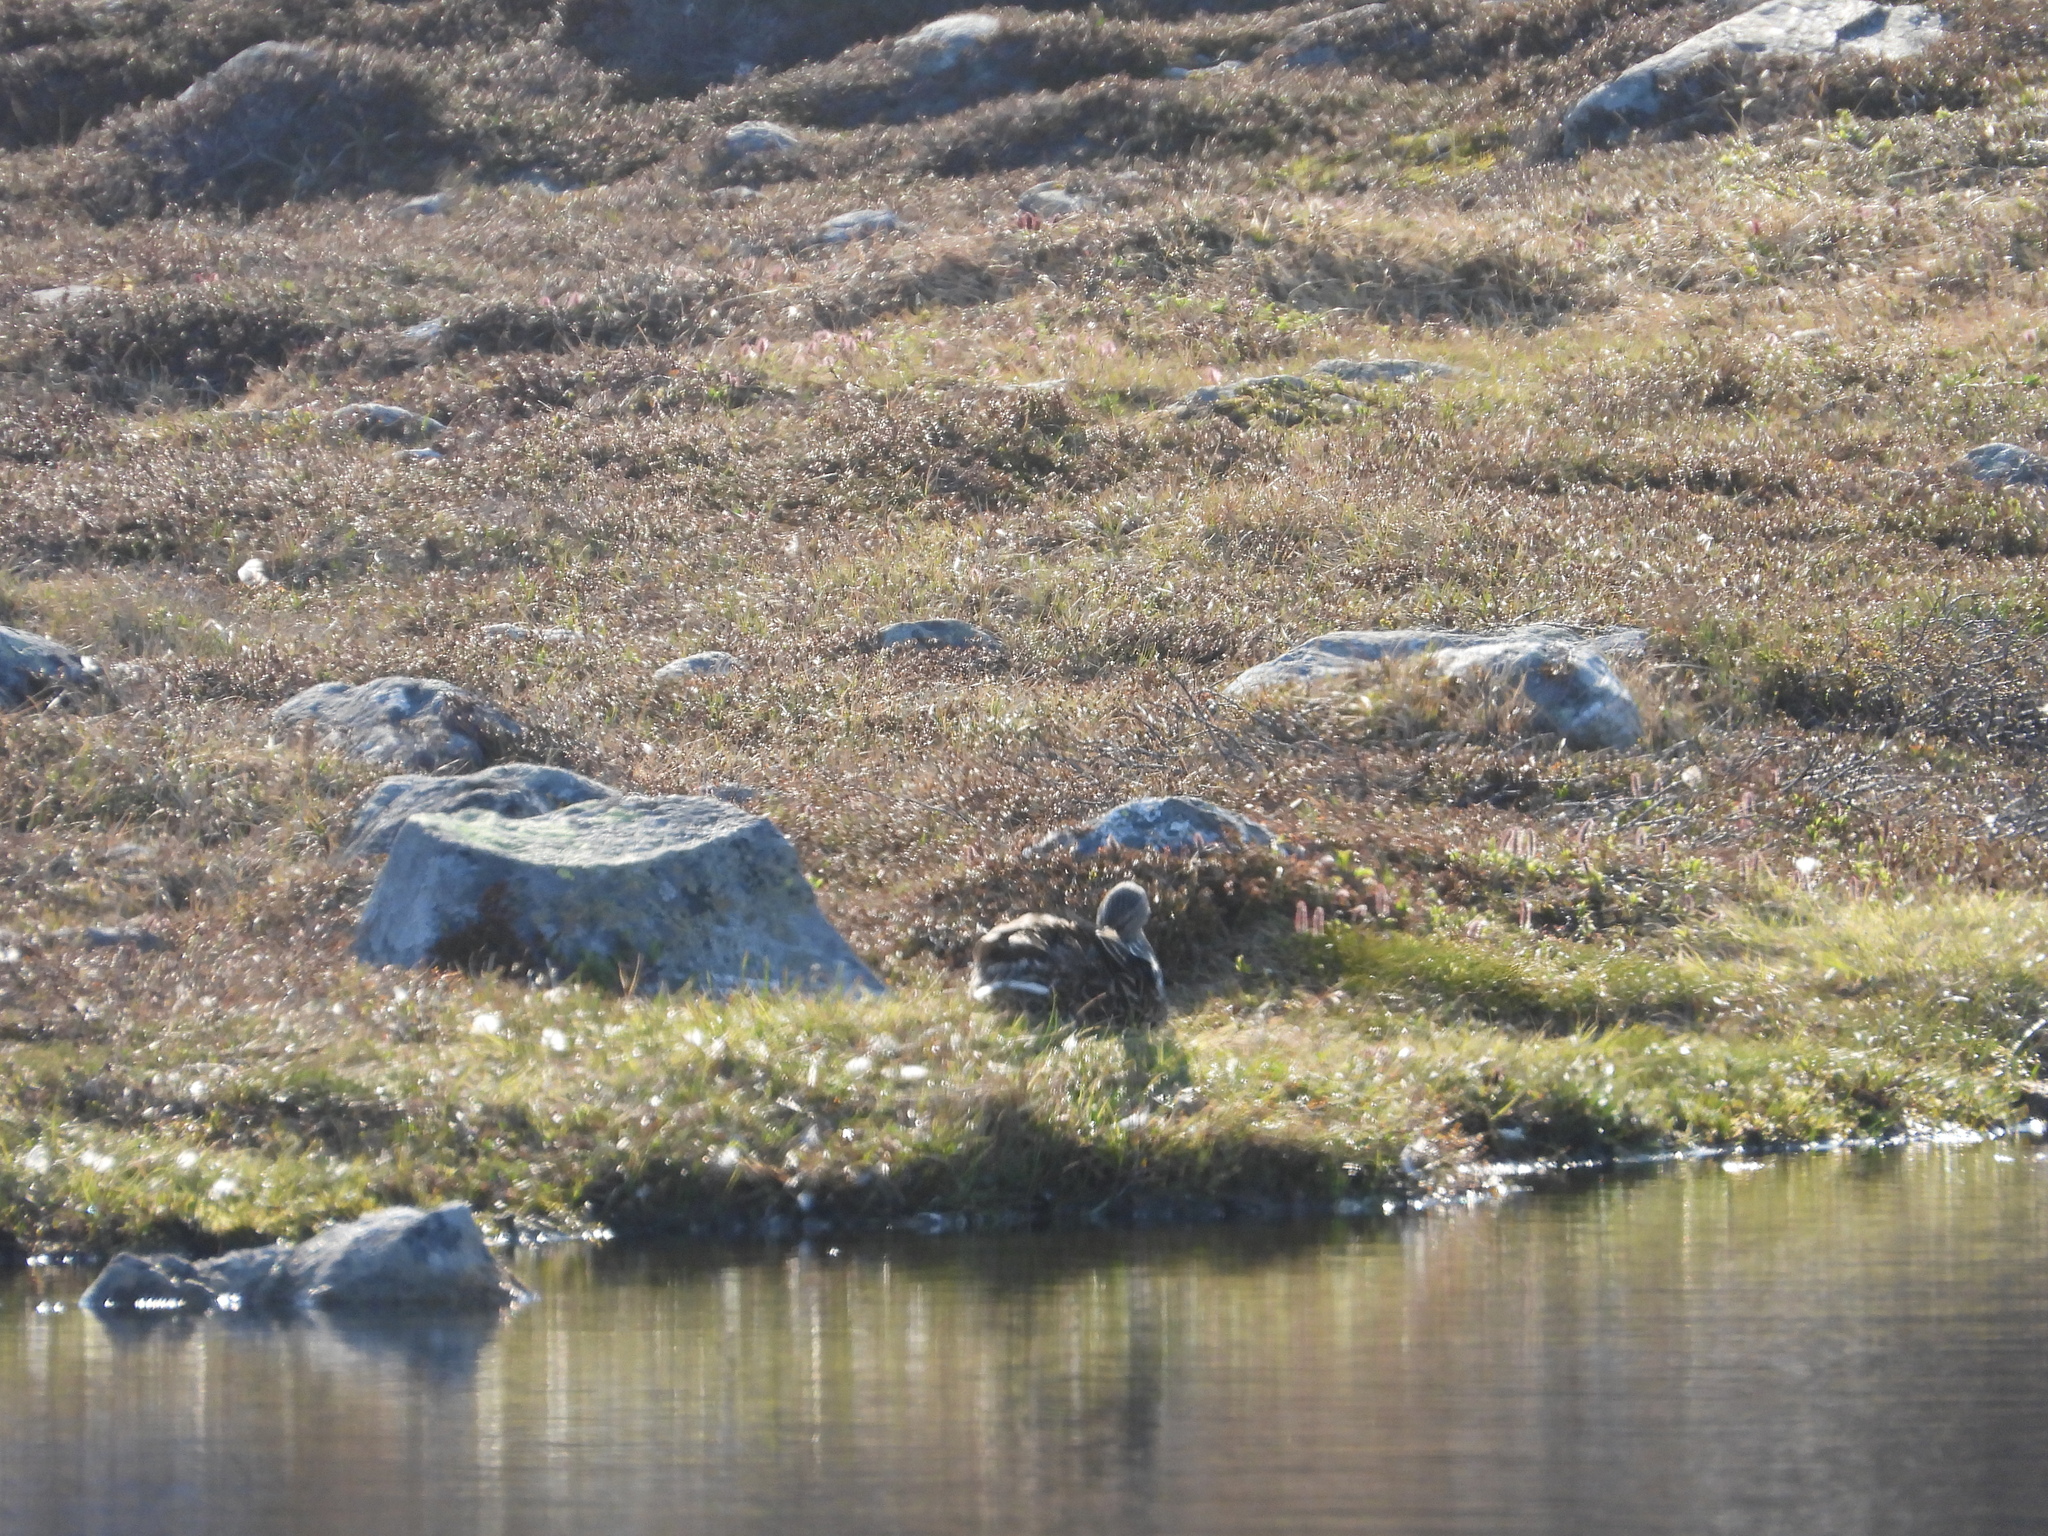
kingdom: Animalia
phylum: Chordata
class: Aves
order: Anseriformes
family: Anatidae
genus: Anas
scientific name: Anas platyrhynchos
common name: Mallard
